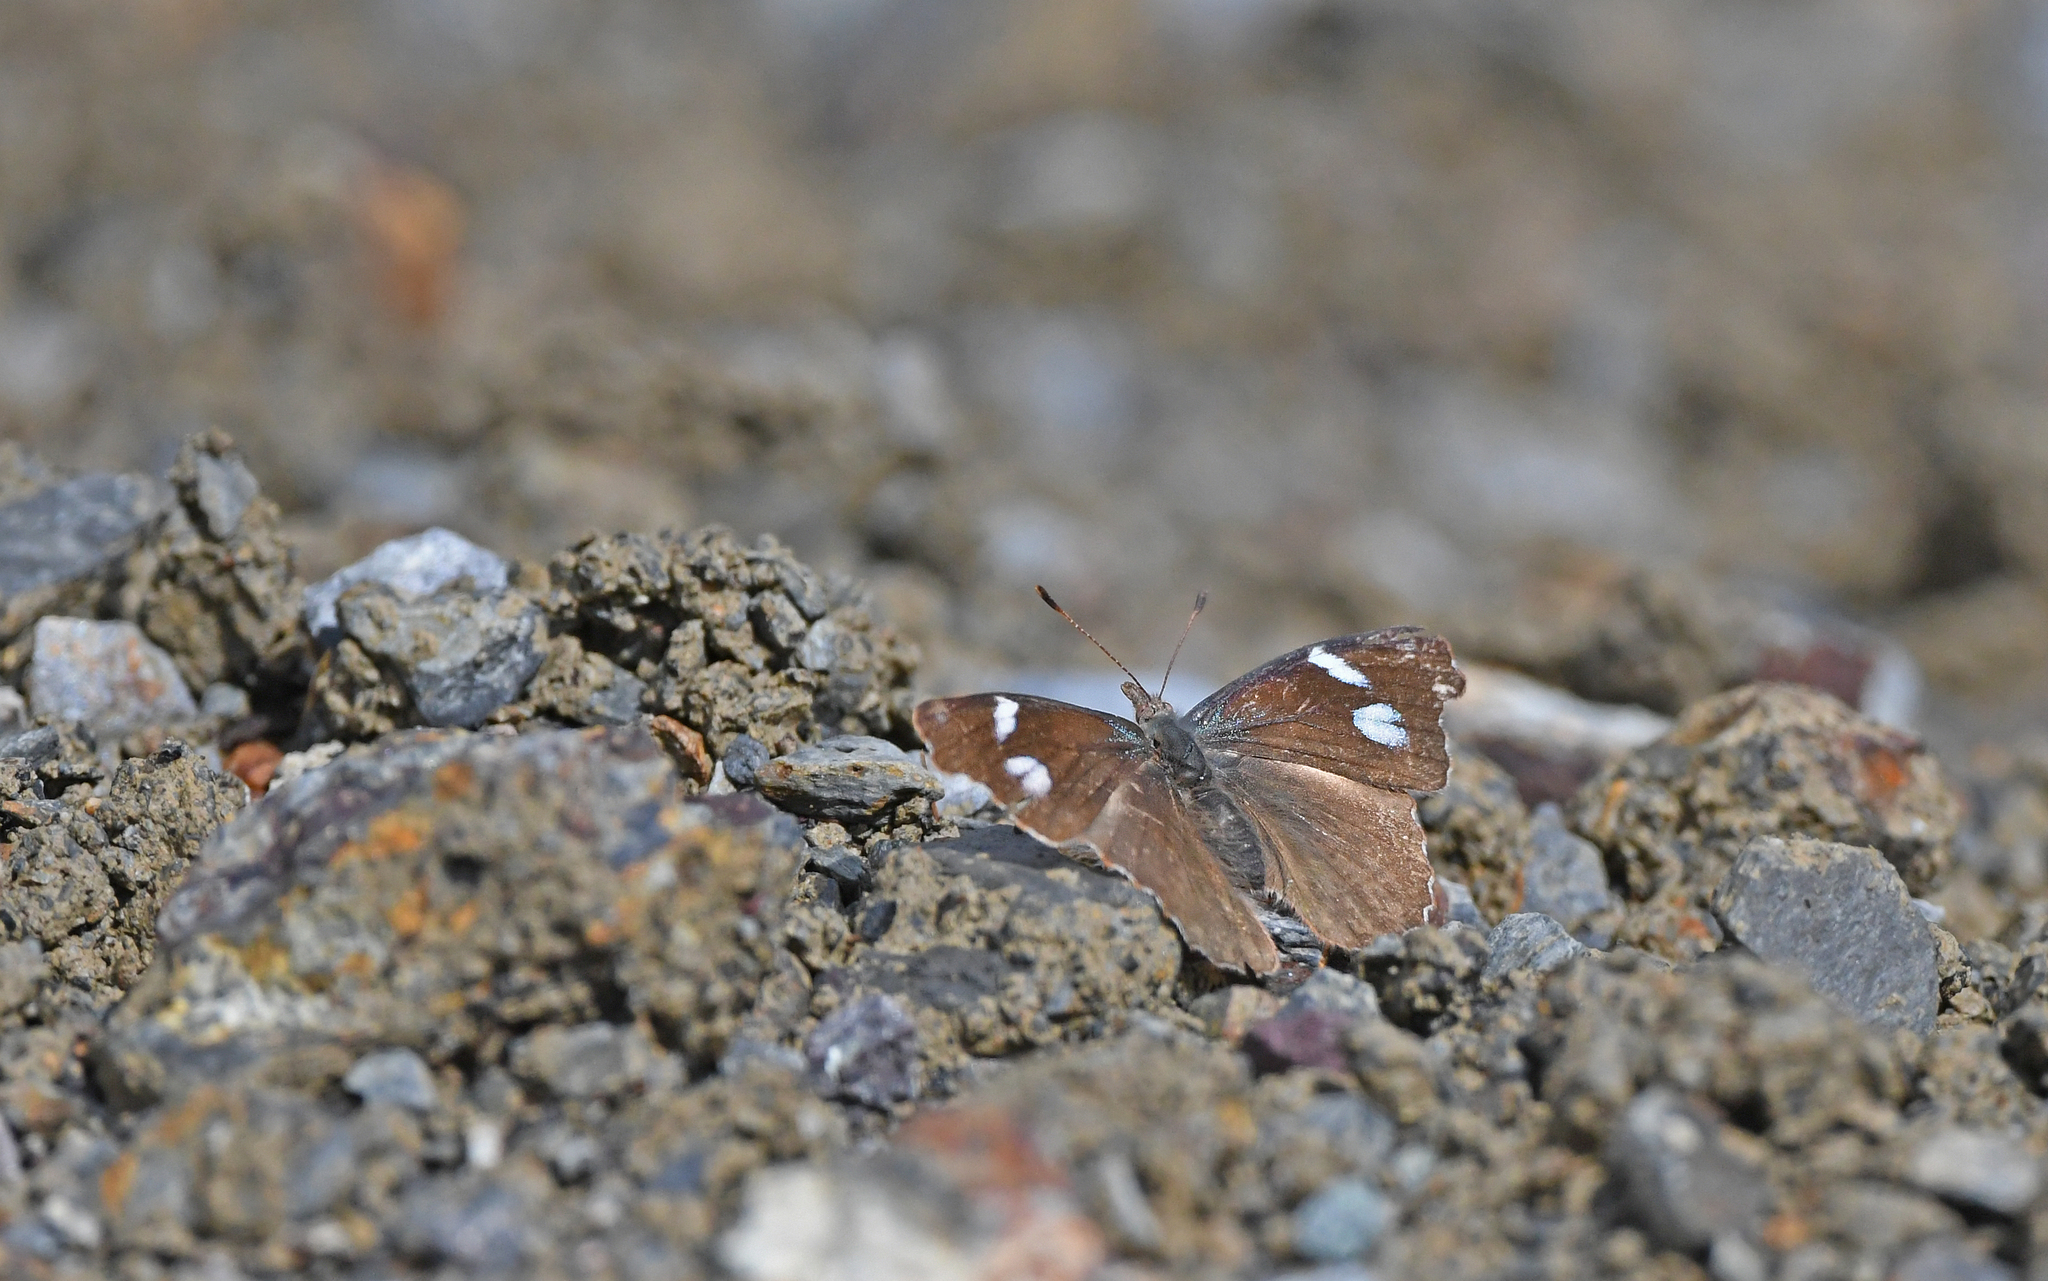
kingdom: Animalia
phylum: Arthropoda
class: Insecta
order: Lepidoptera
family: Nymphalidae
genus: Perisama
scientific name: Perisama diotima
